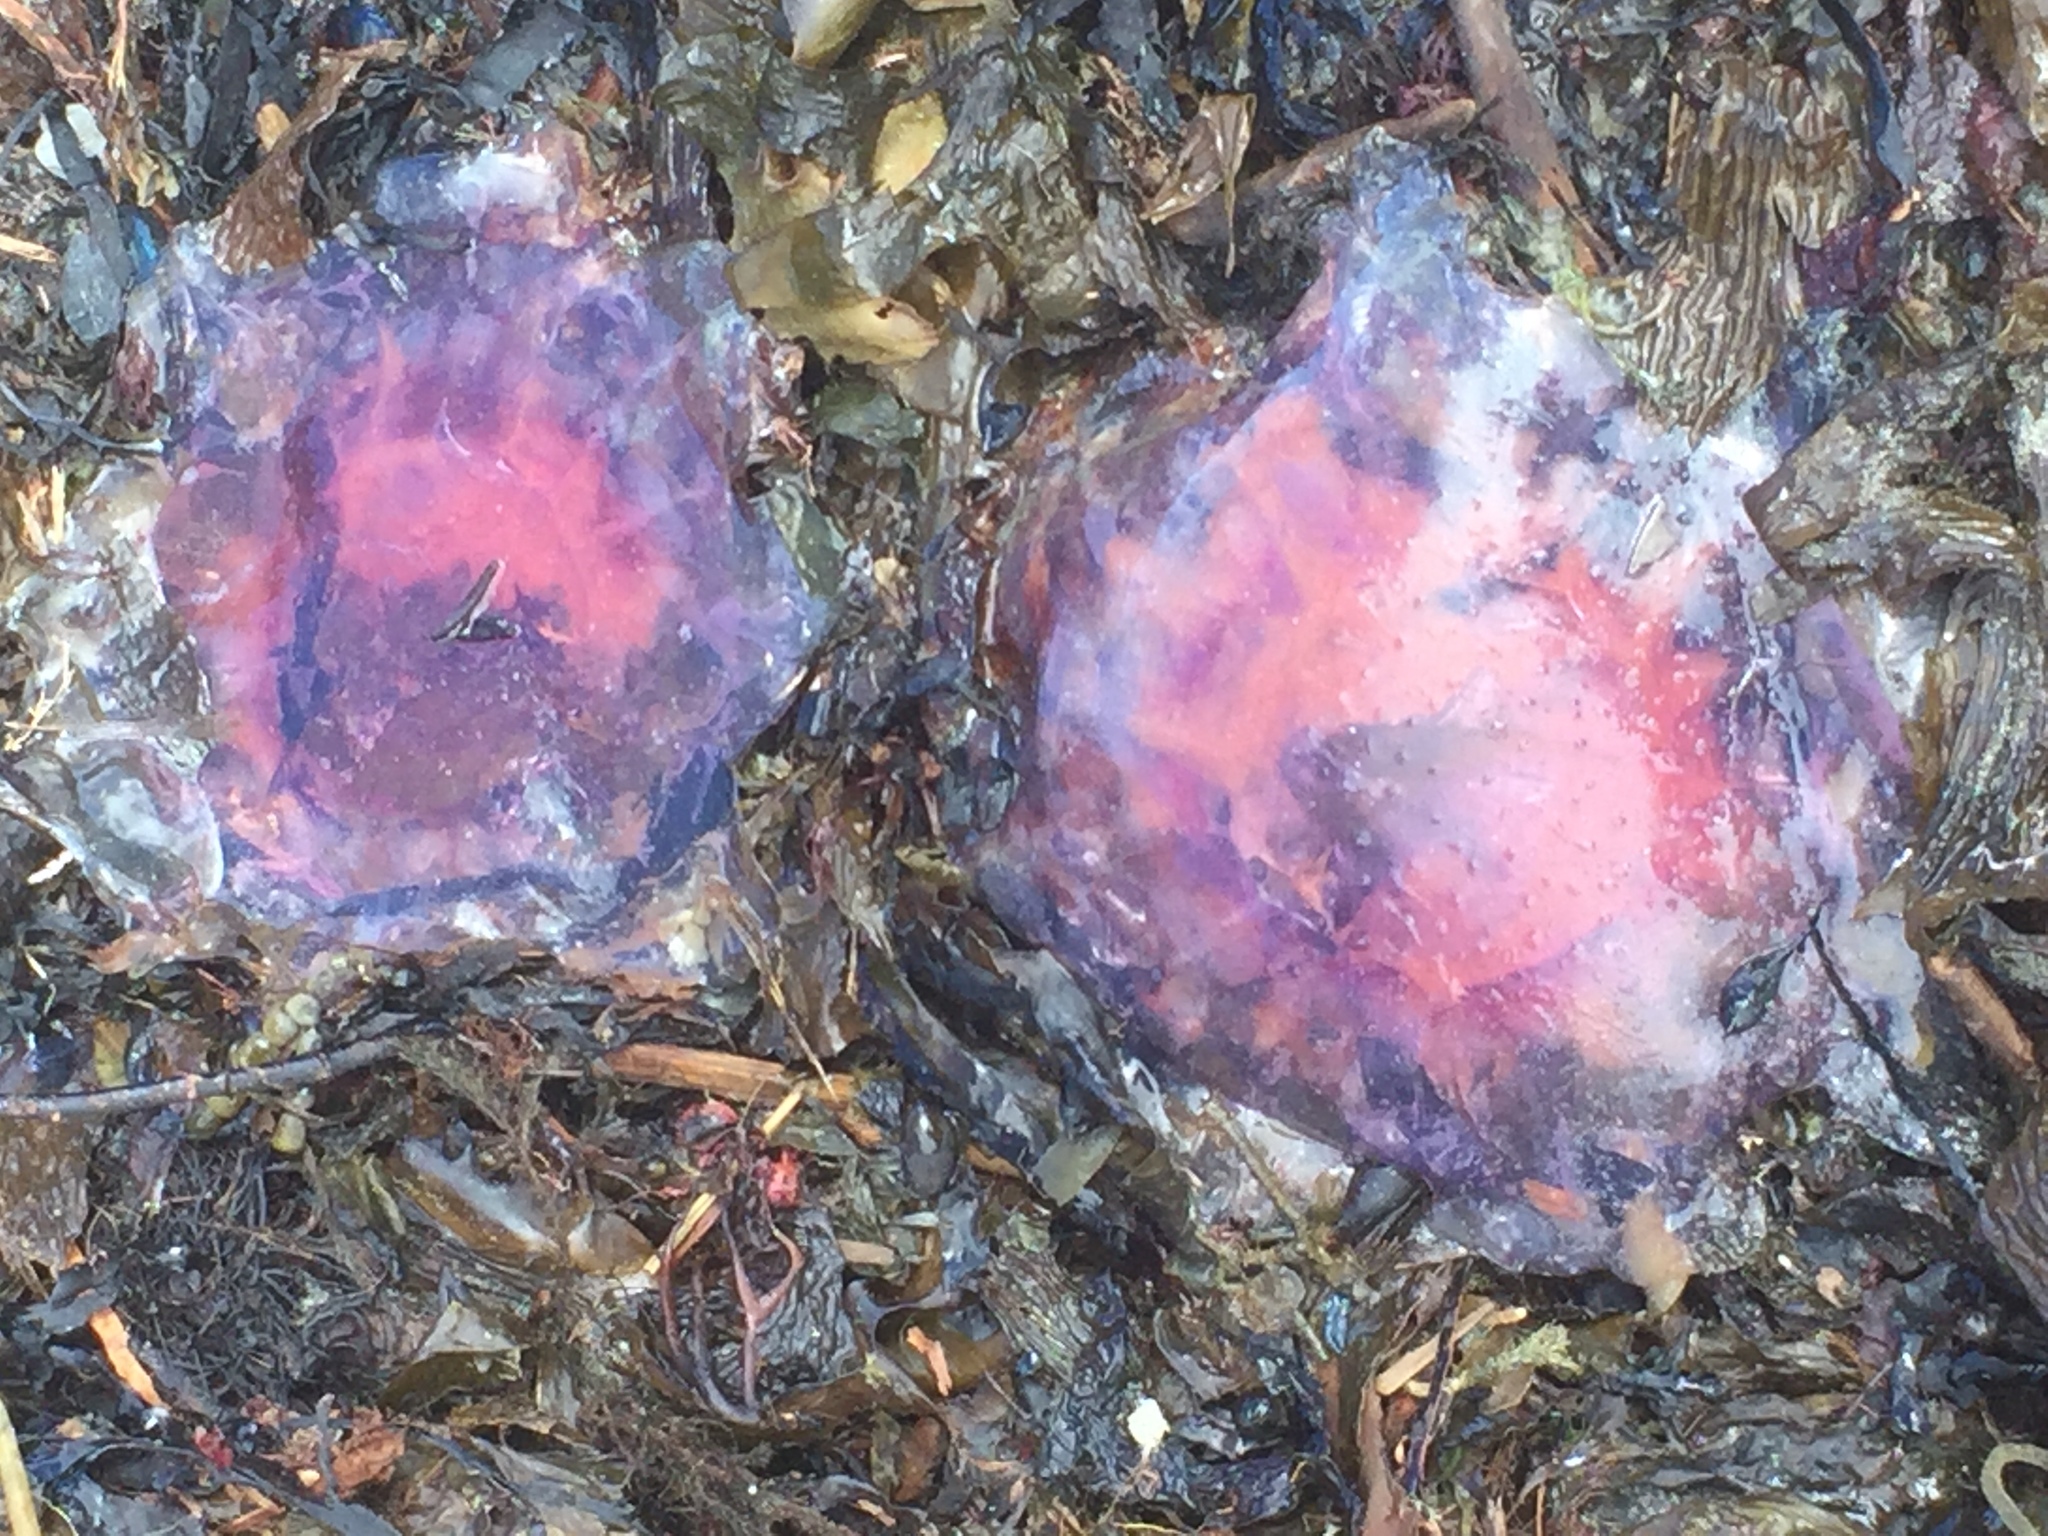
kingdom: Animalia
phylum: Cnidaria
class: Scyphozoa
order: Semaeostomeae
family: Cyaneidae
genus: Cyanea
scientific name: Cyanea
